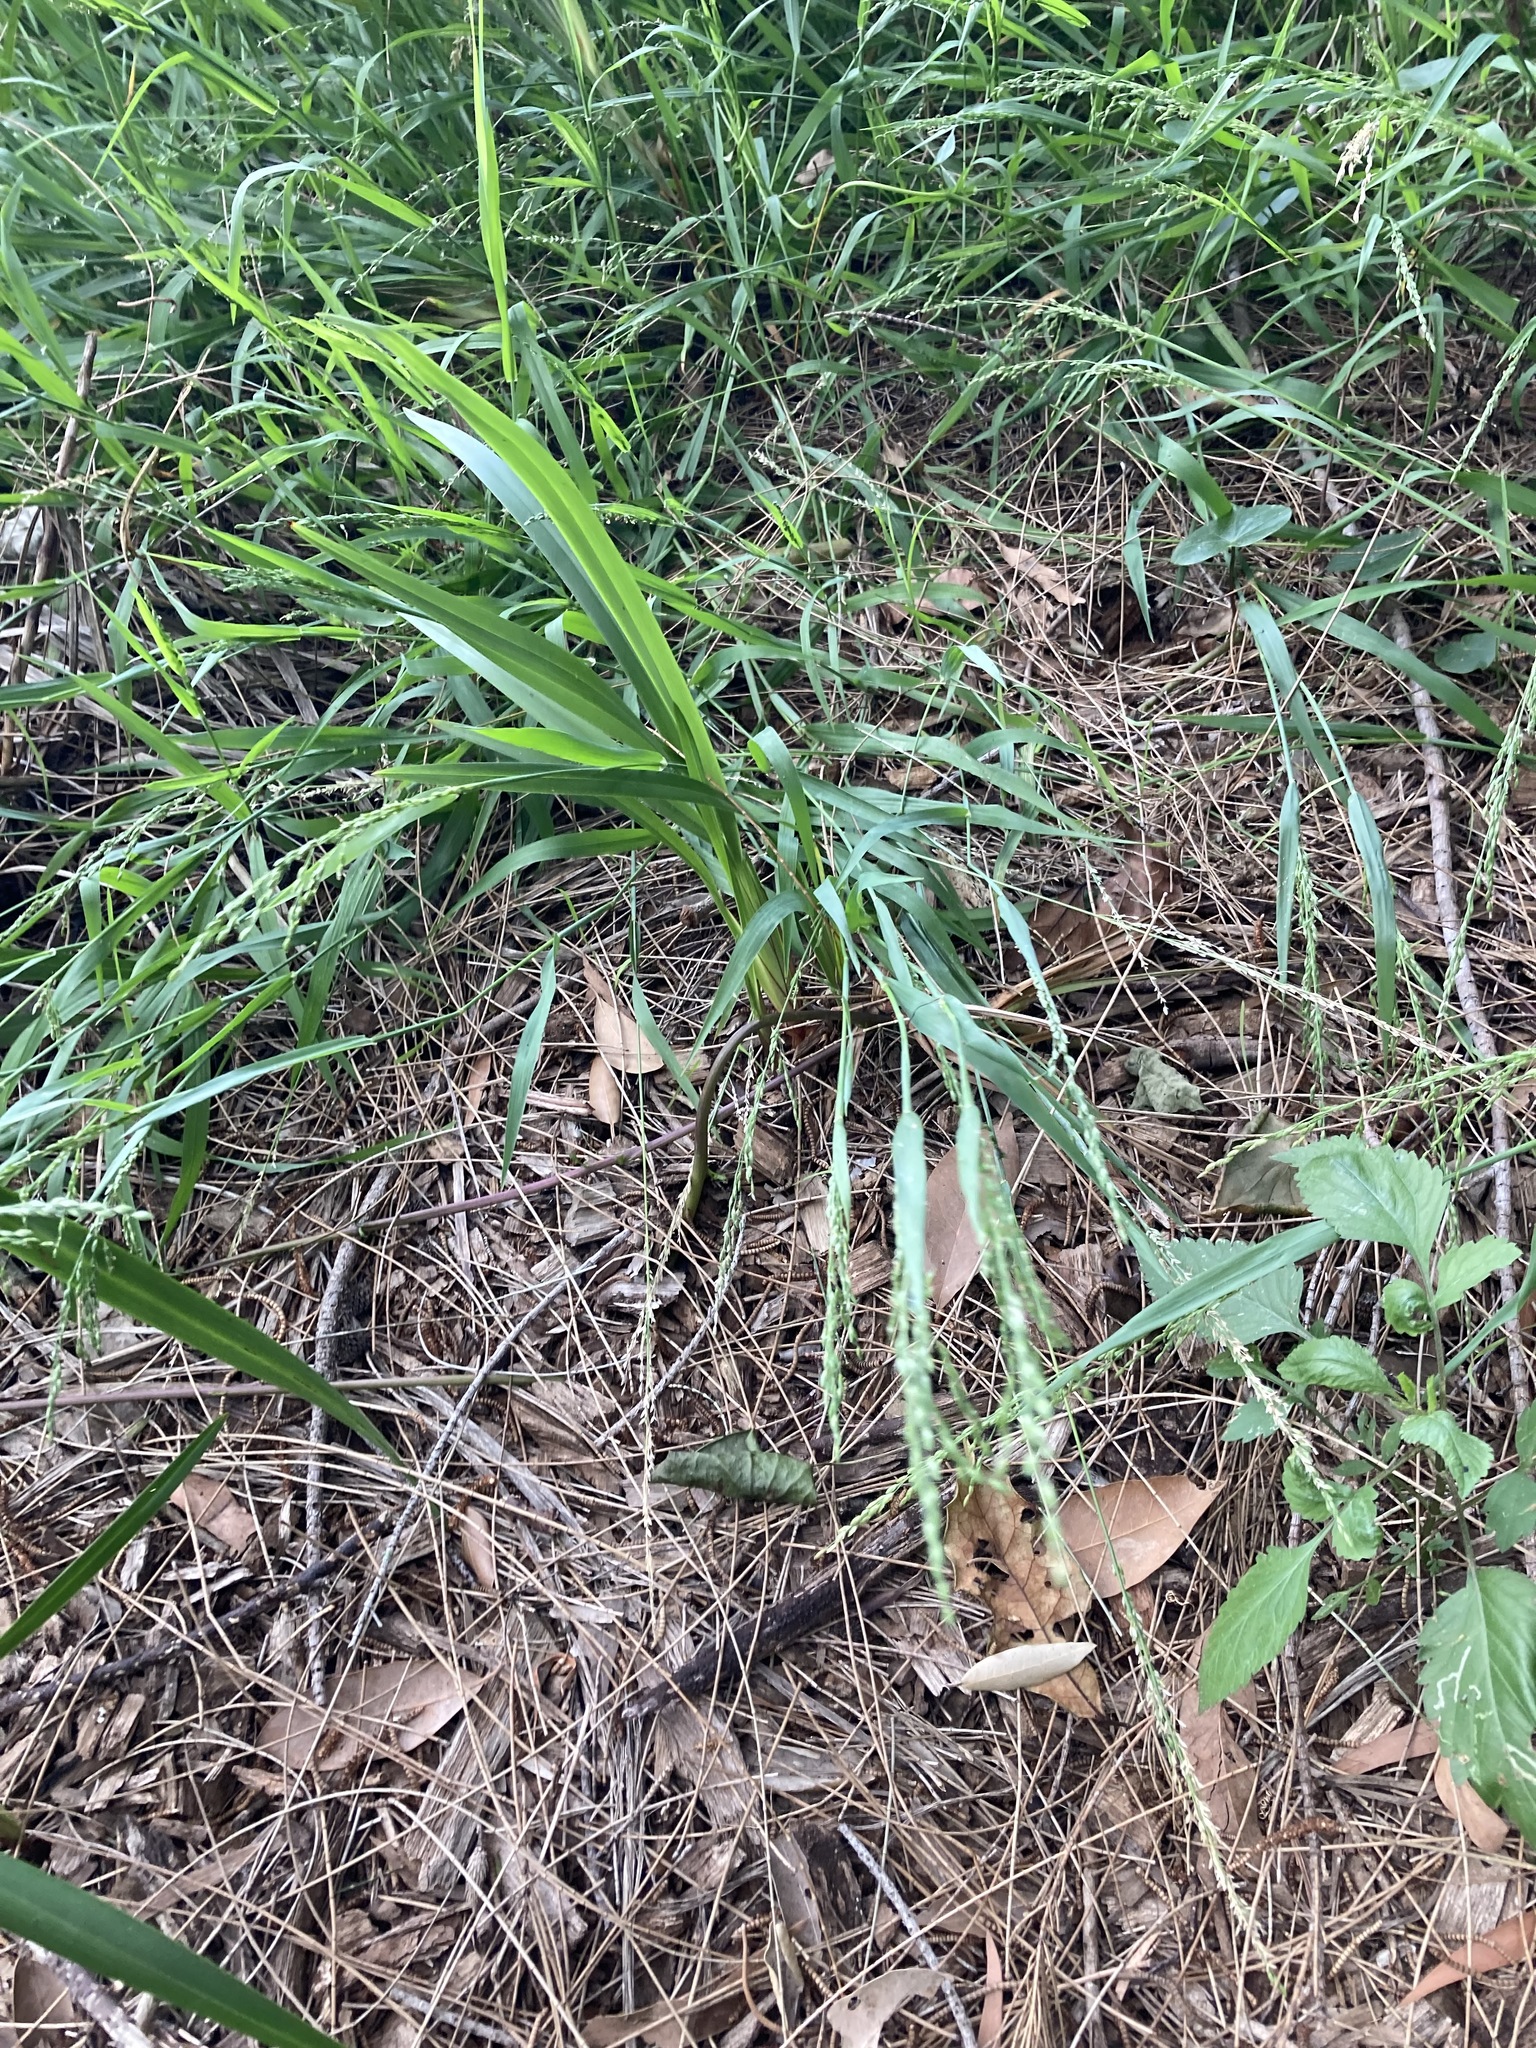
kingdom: Plantae
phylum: Tracheophyta
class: Liliopsida
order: Poales
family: Poaceae
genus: Ehrharta
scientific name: Ehrharta erecta
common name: Panic veldtgrass
